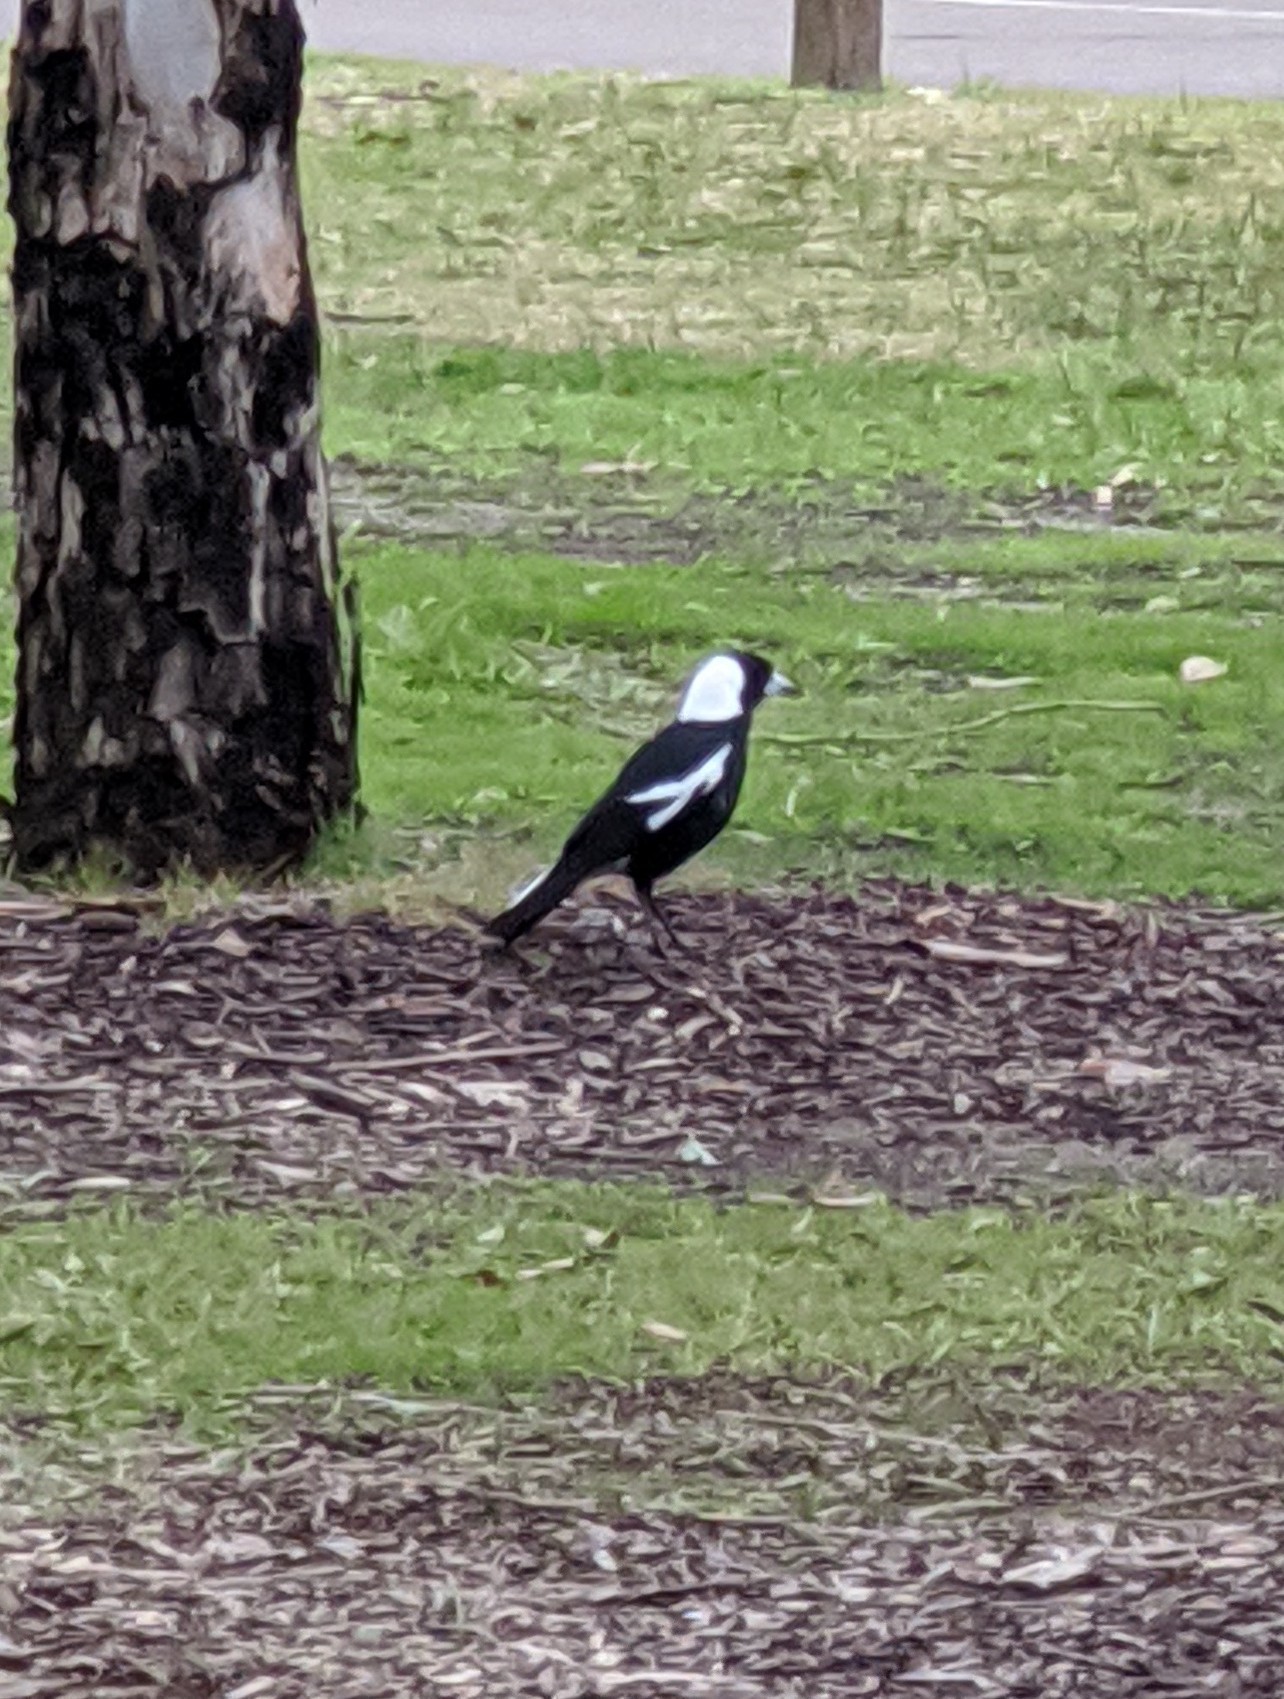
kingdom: Animalia
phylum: Chordata
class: Aves
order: Passeriformes
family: Cracticidae
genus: Gymnorhina
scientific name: Gymnorhina tibicen
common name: Australian magpie
